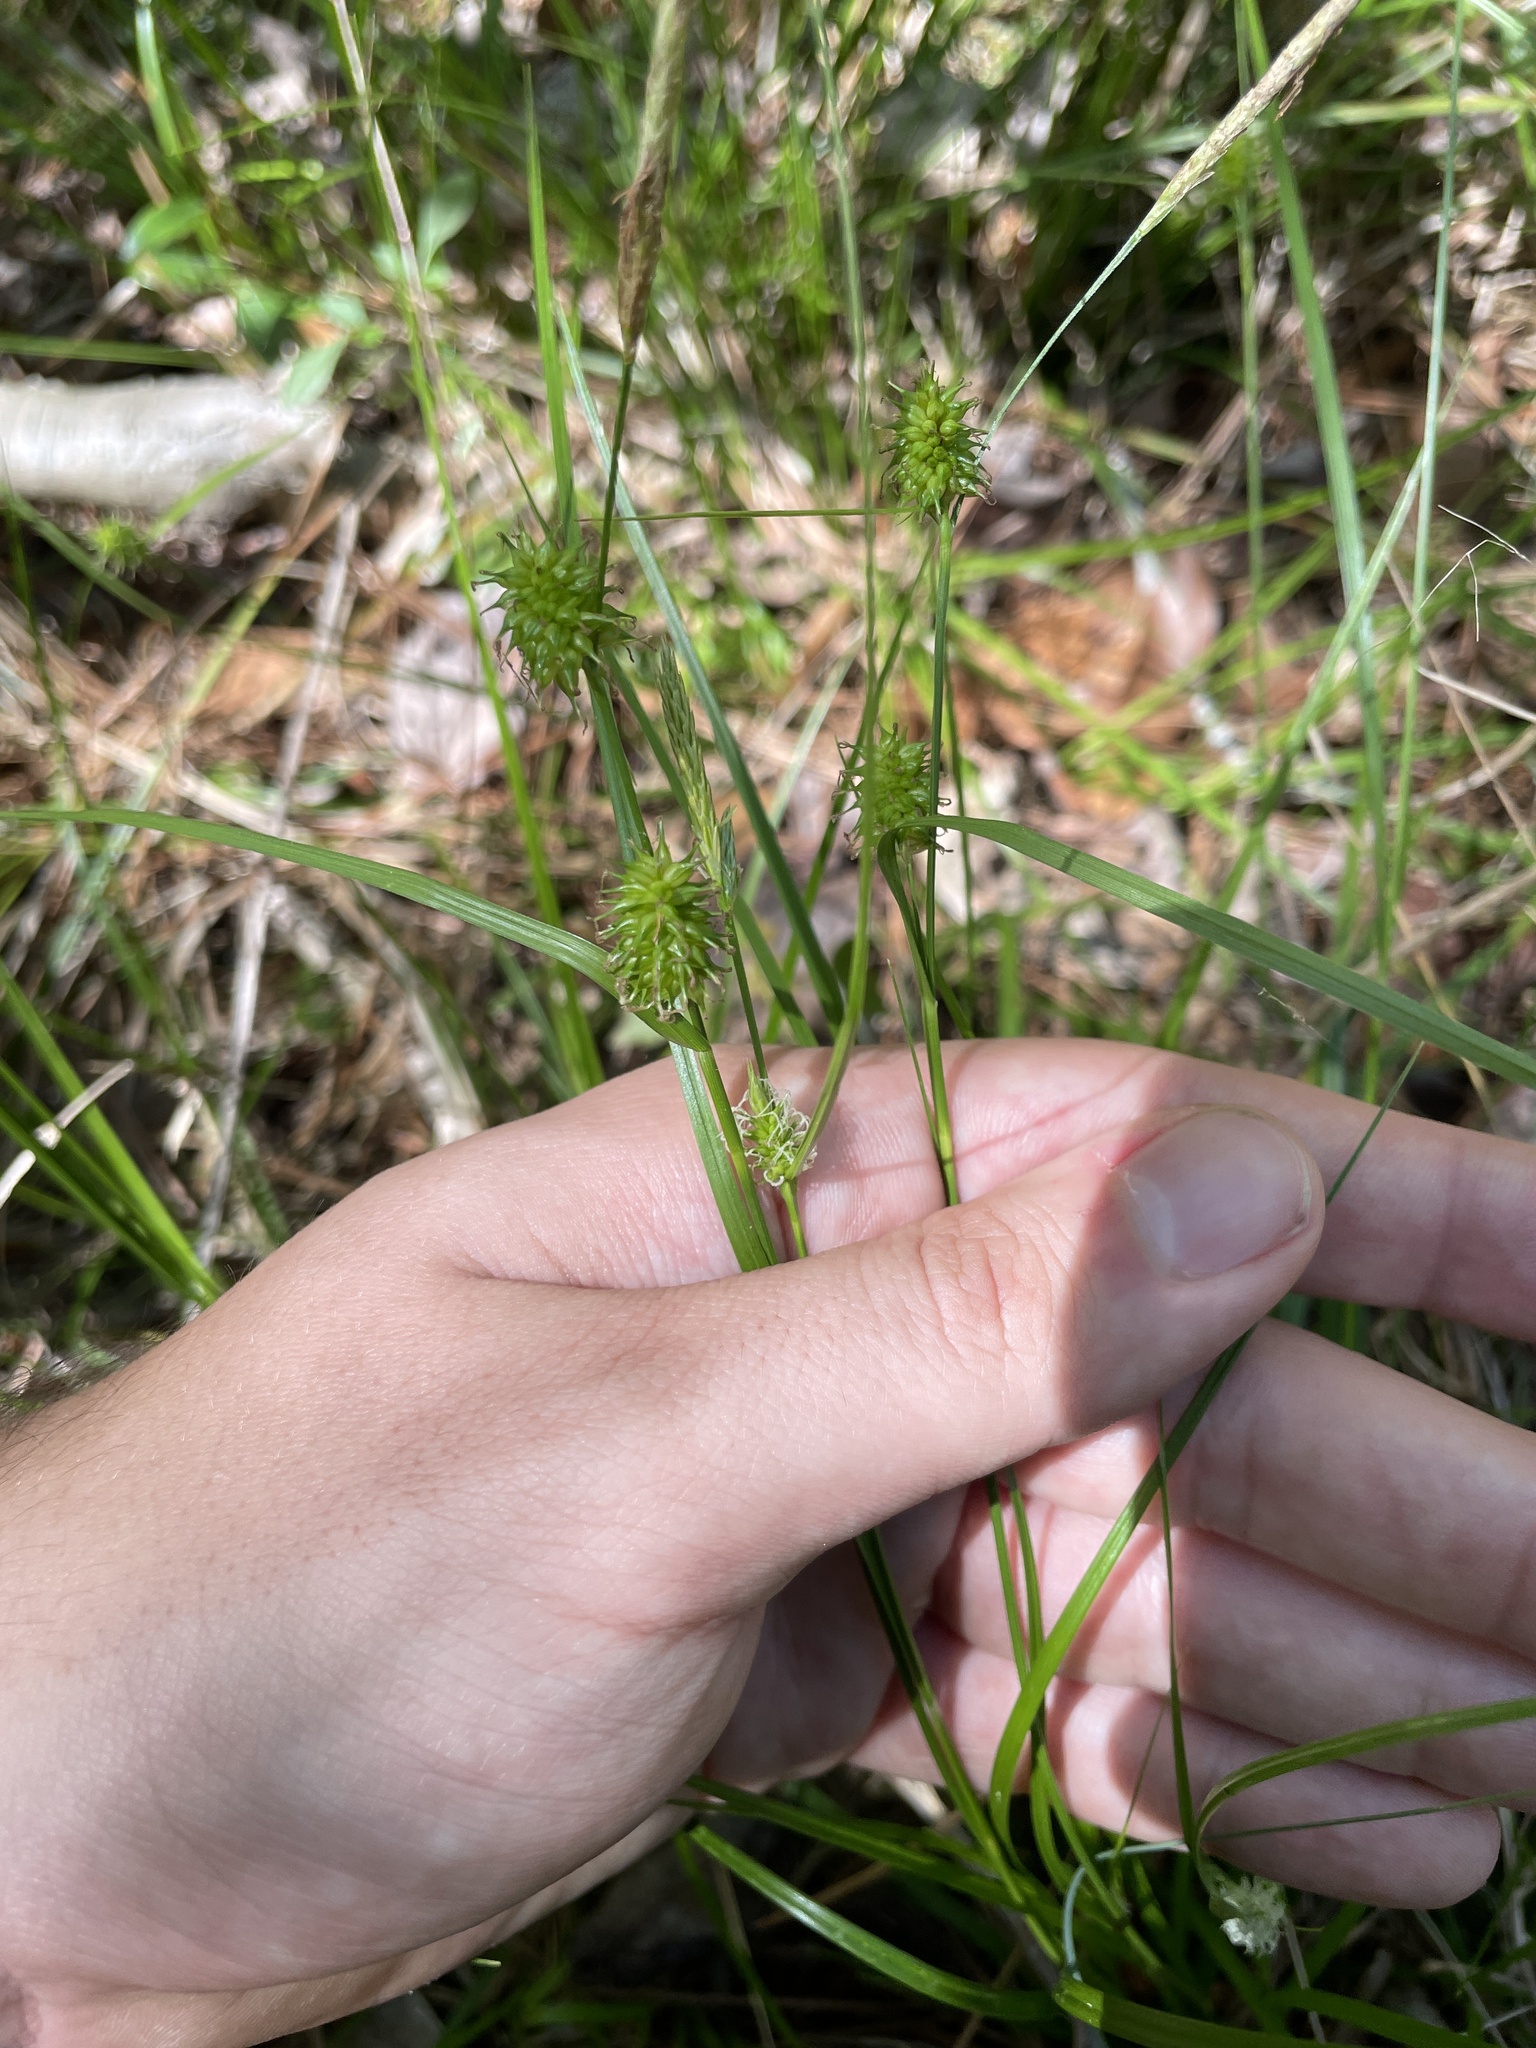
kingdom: Plantae
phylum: Tracheophyta
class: Liliopsida
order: Poales
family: Cyperaceae
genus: Carex
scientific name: Carex lutea
